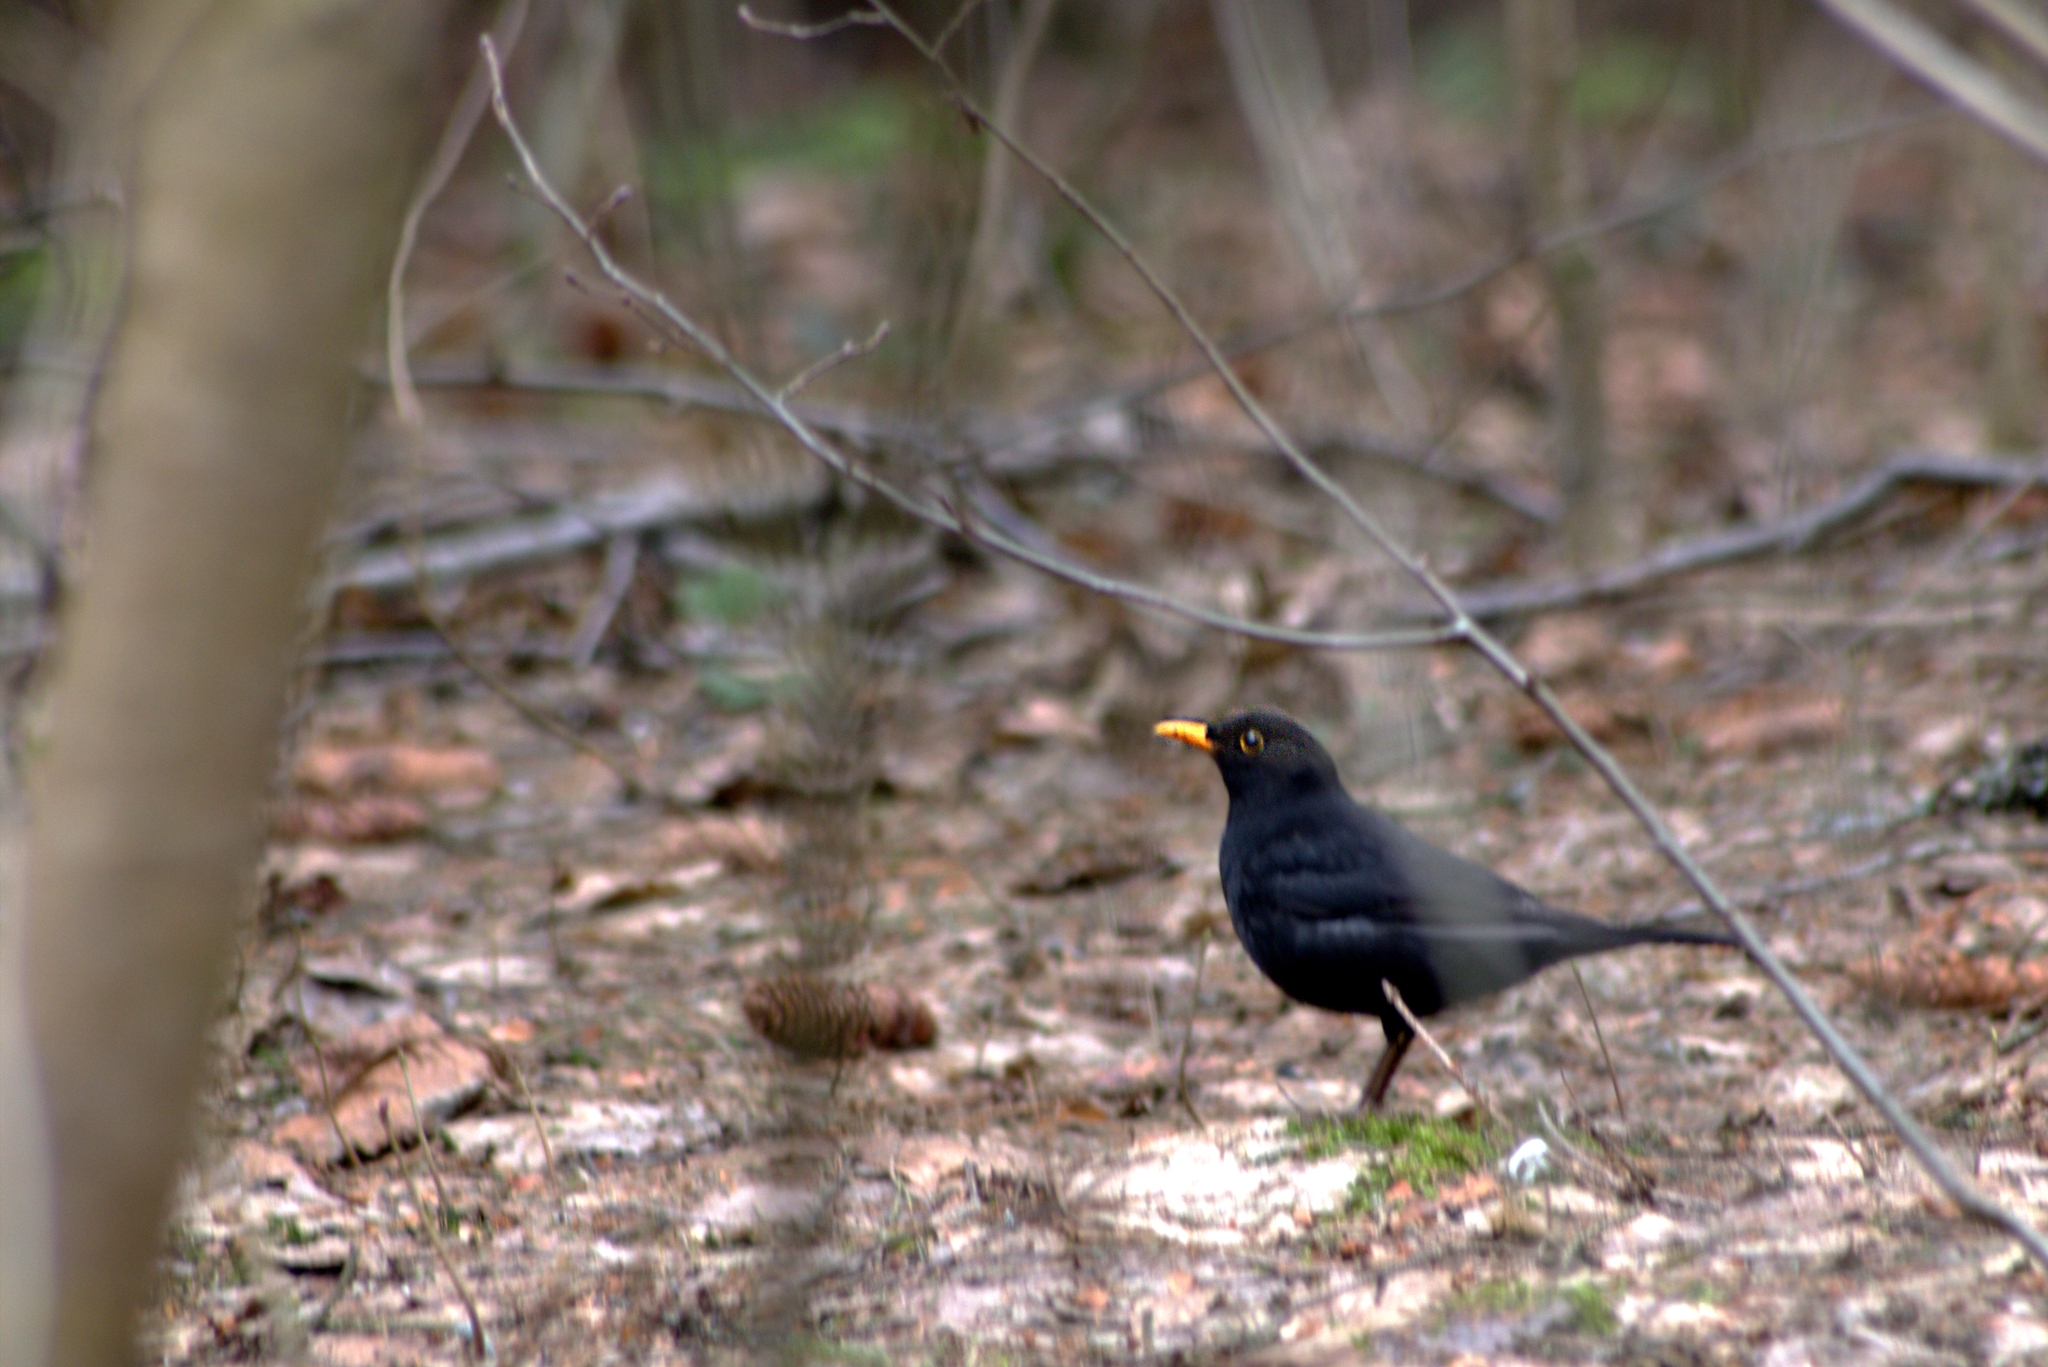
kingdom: Animalia
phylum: Chordata
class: Aves
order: Passeriformes
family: Turdidae
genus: Turdus
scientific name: Turdus merula
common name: Common blackbird
